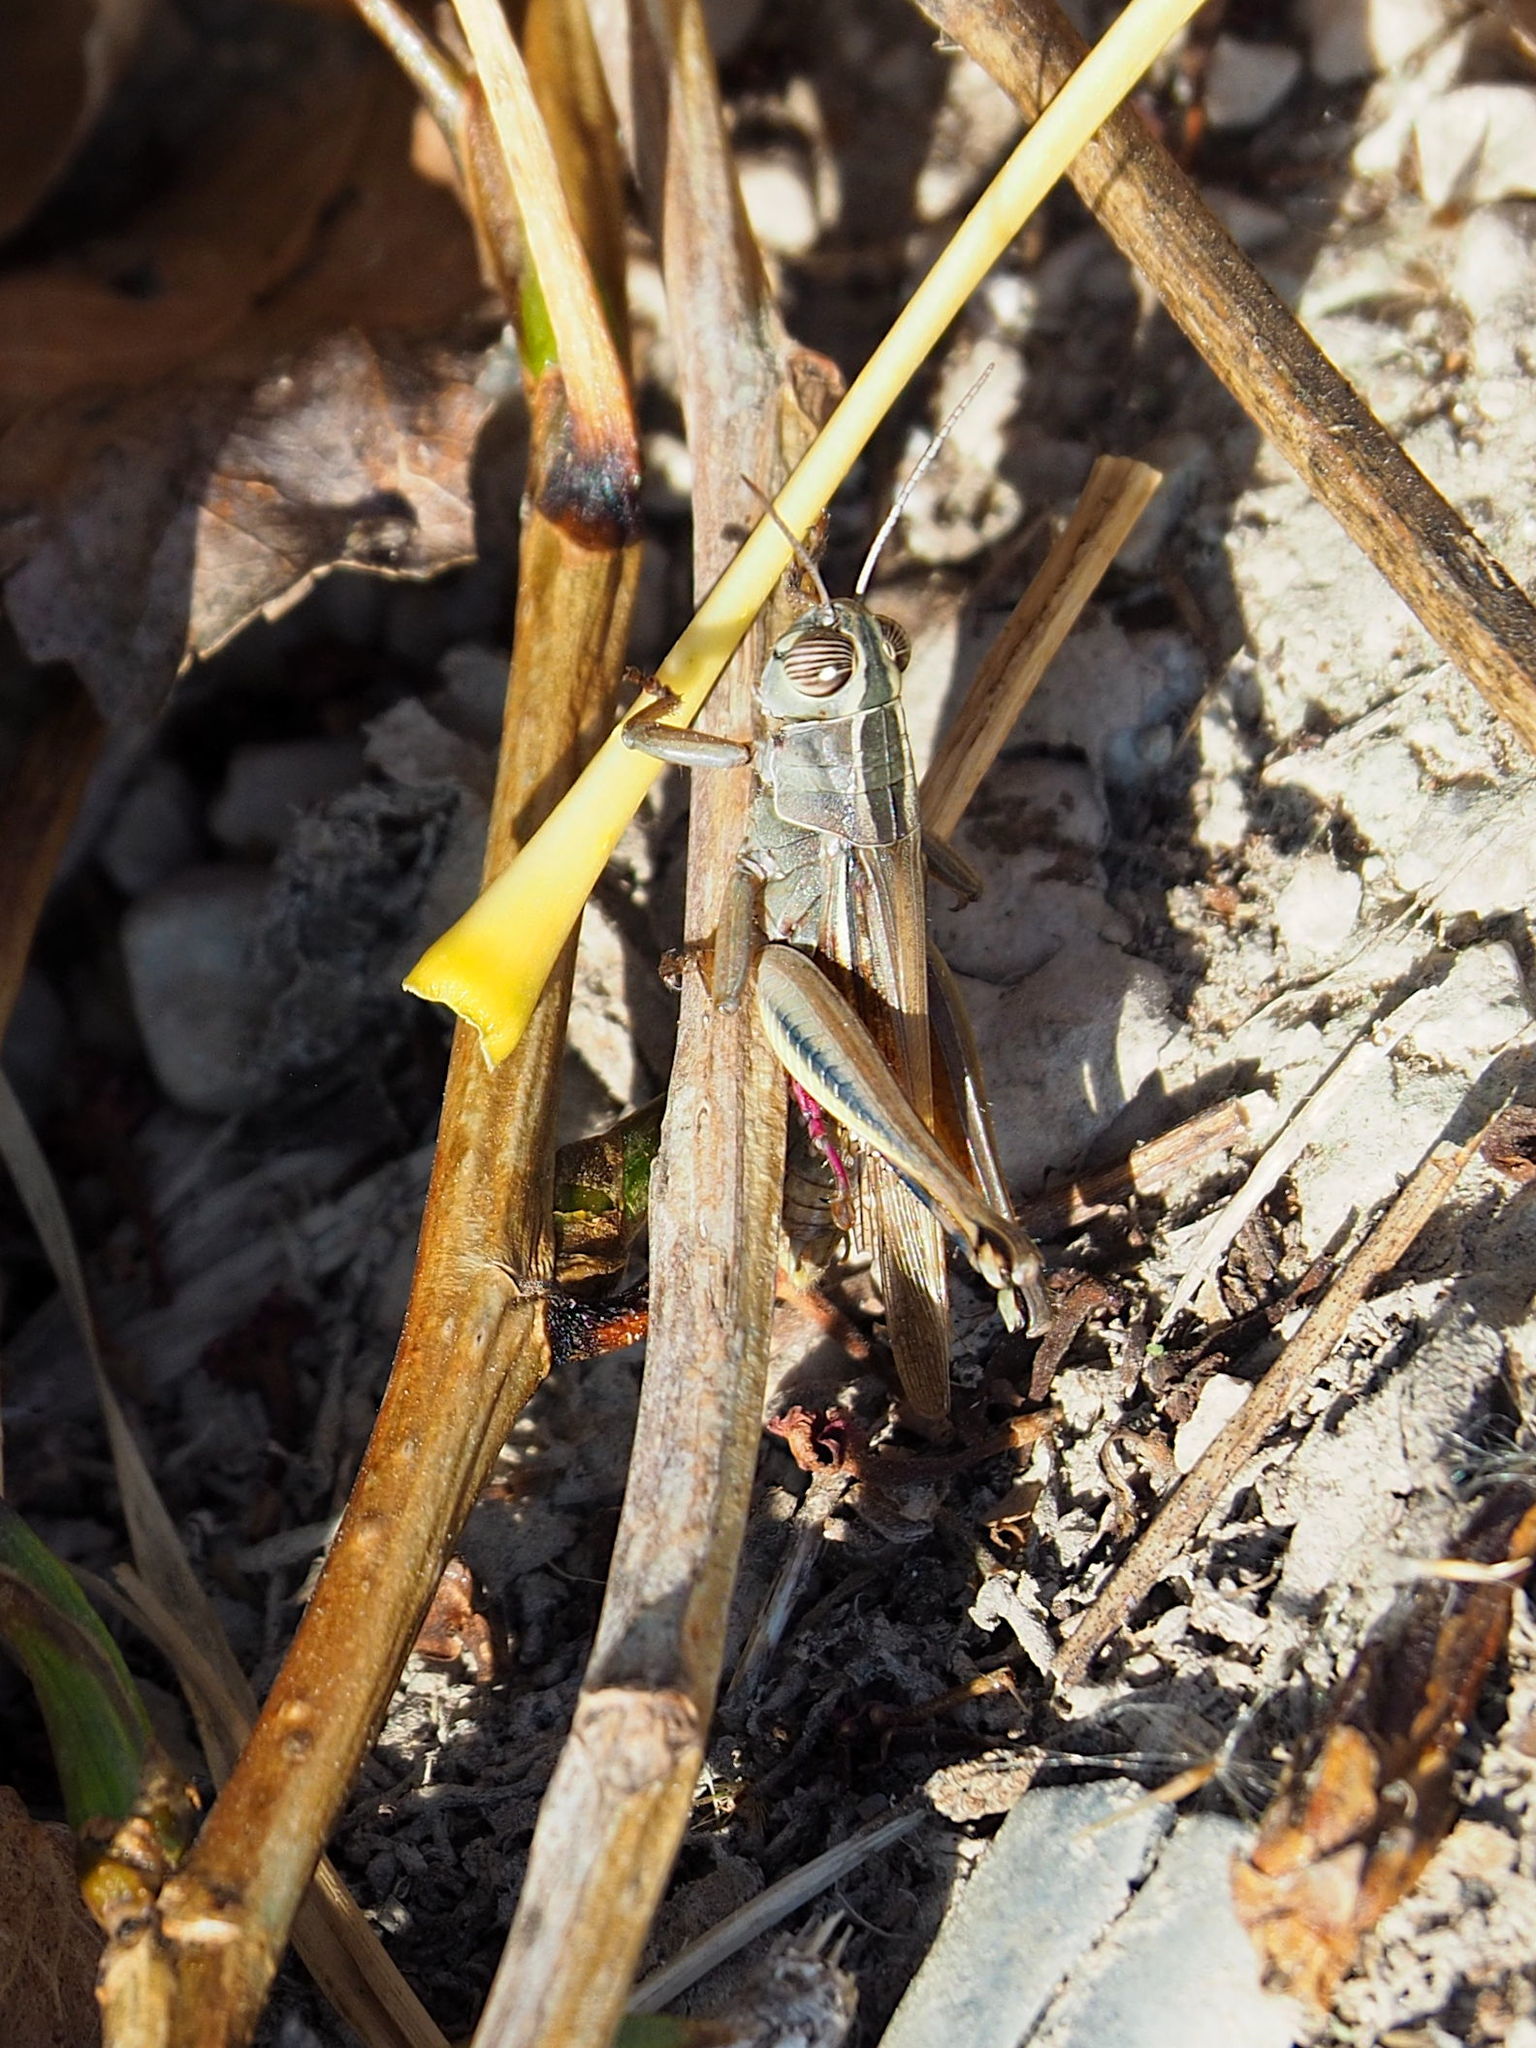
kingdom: Animalia
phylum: Arthropoda
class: Insecta
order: Orthoptera
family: Acrididae
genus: Eyprepocnemis
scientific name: Eyprepocnemis plorans
